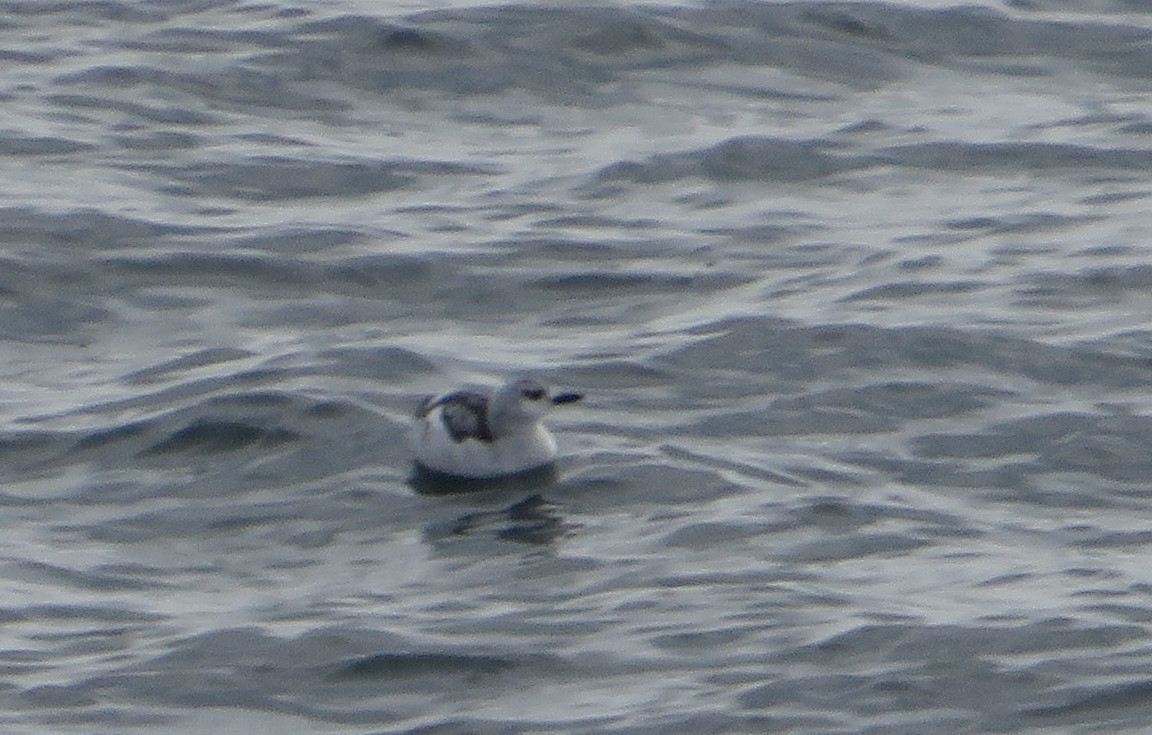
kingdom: Animalia
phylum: Chordata
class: Aves
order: Charadriiformes
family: Alcidae
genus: Cepphus
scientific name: Cepphus grylle
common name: Black guillemot
